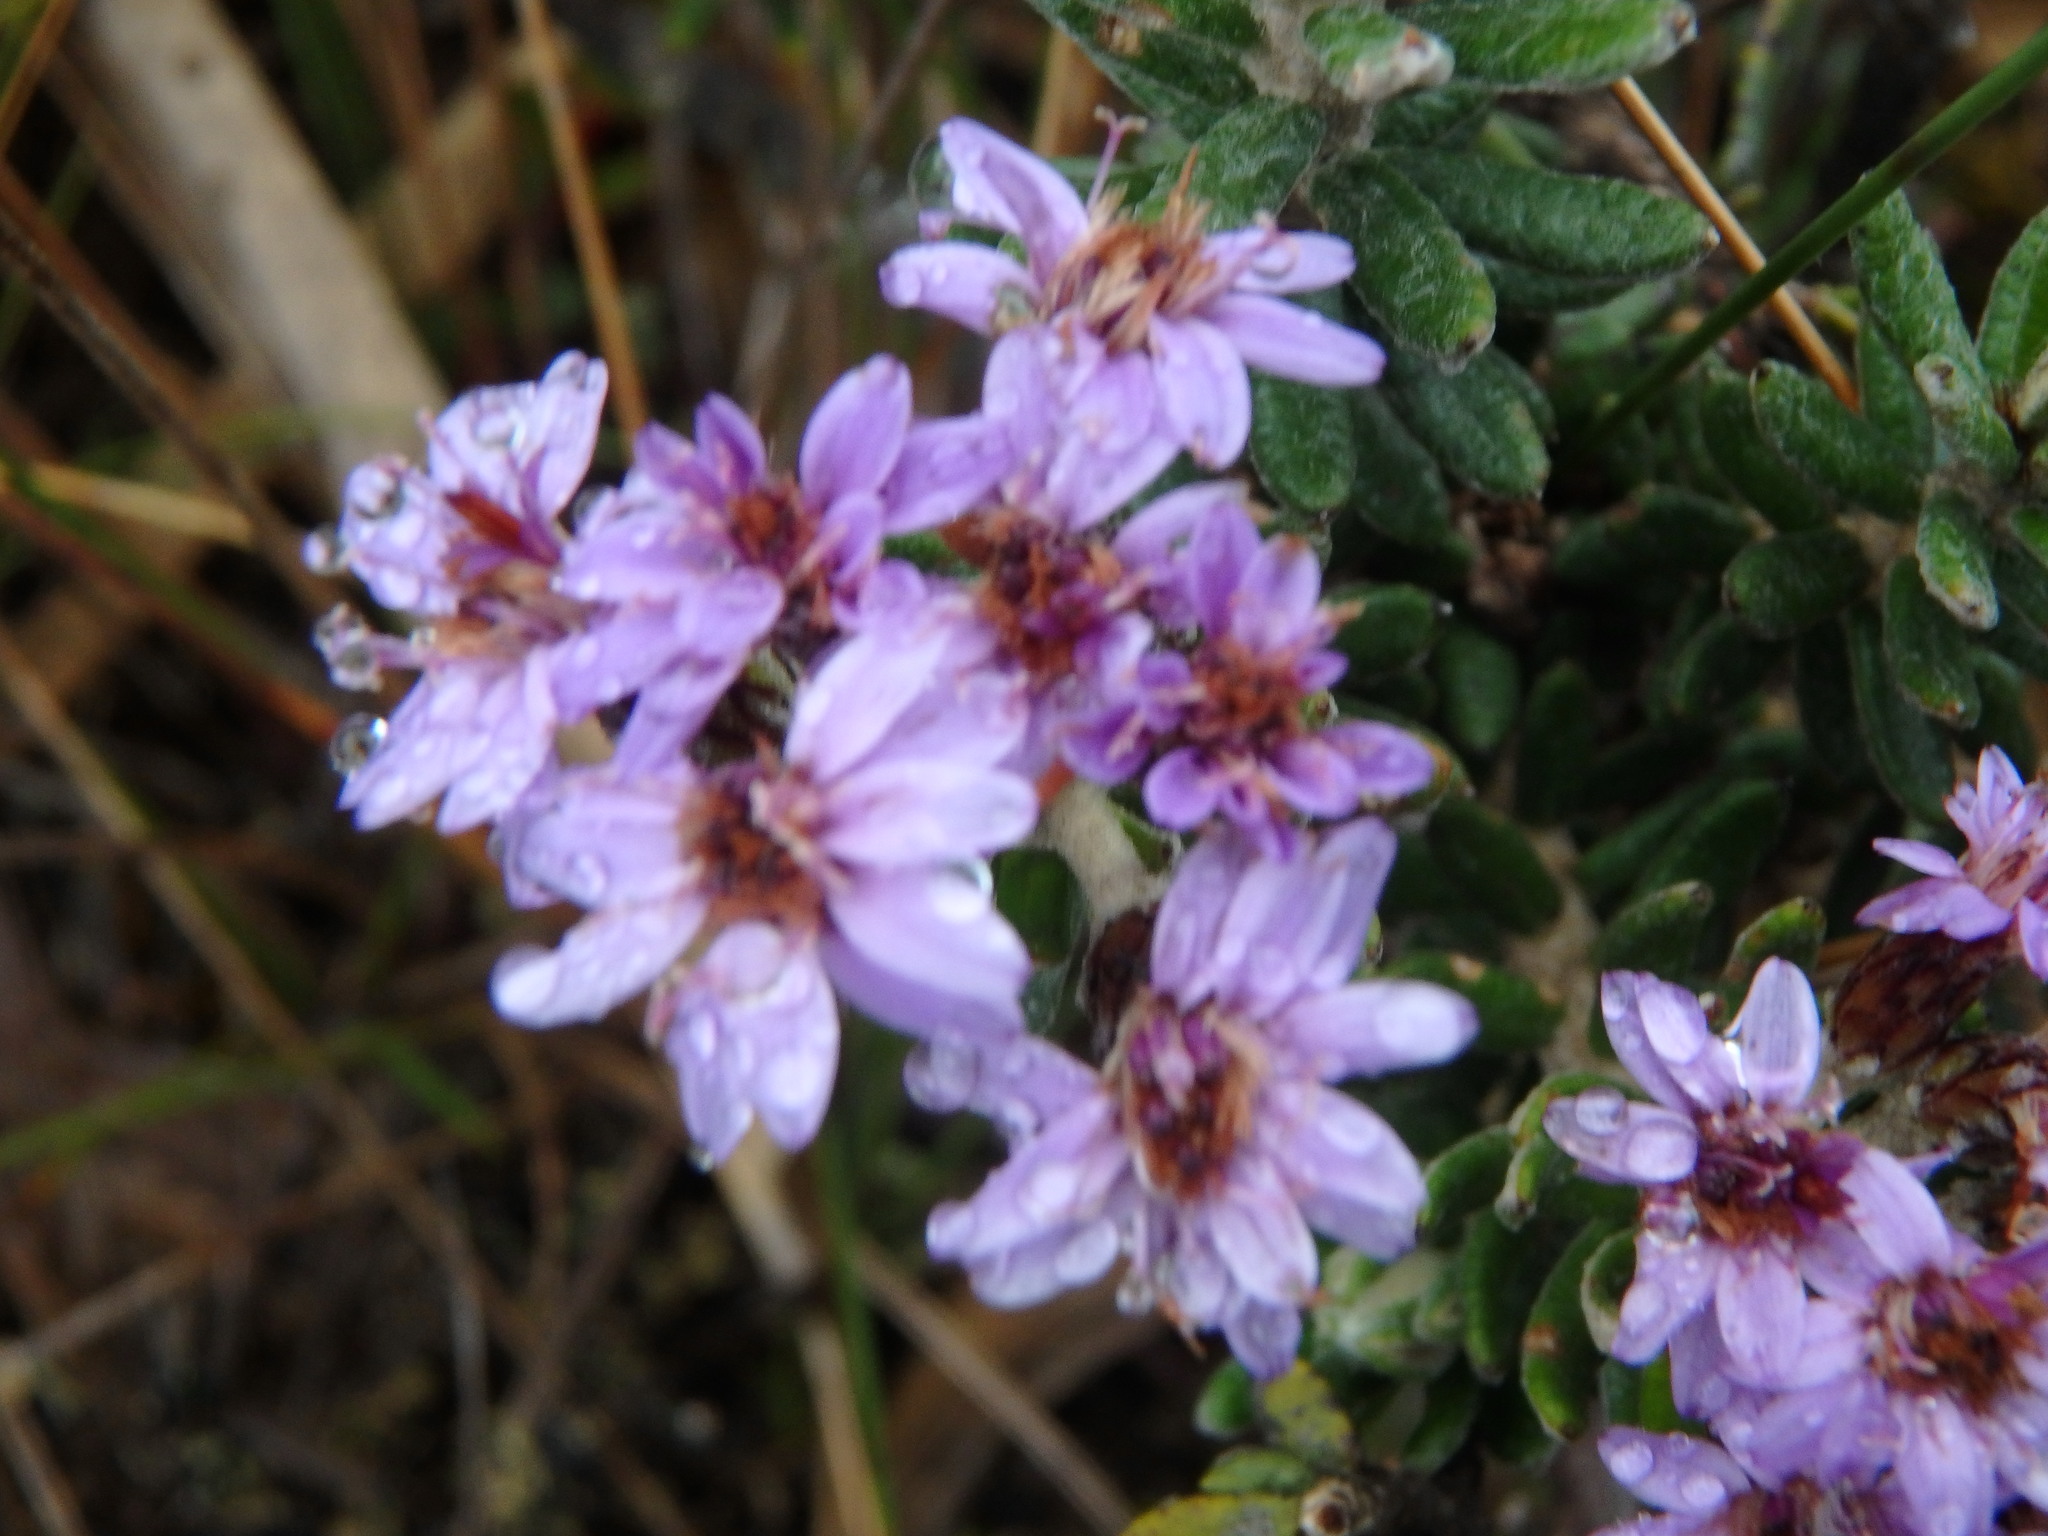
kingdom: Plantae
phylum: Tracheophyta
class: Magnoliopsida
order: Asterales
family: Asteraceae
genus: Linochilus
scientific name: Linochilus phylicoides
